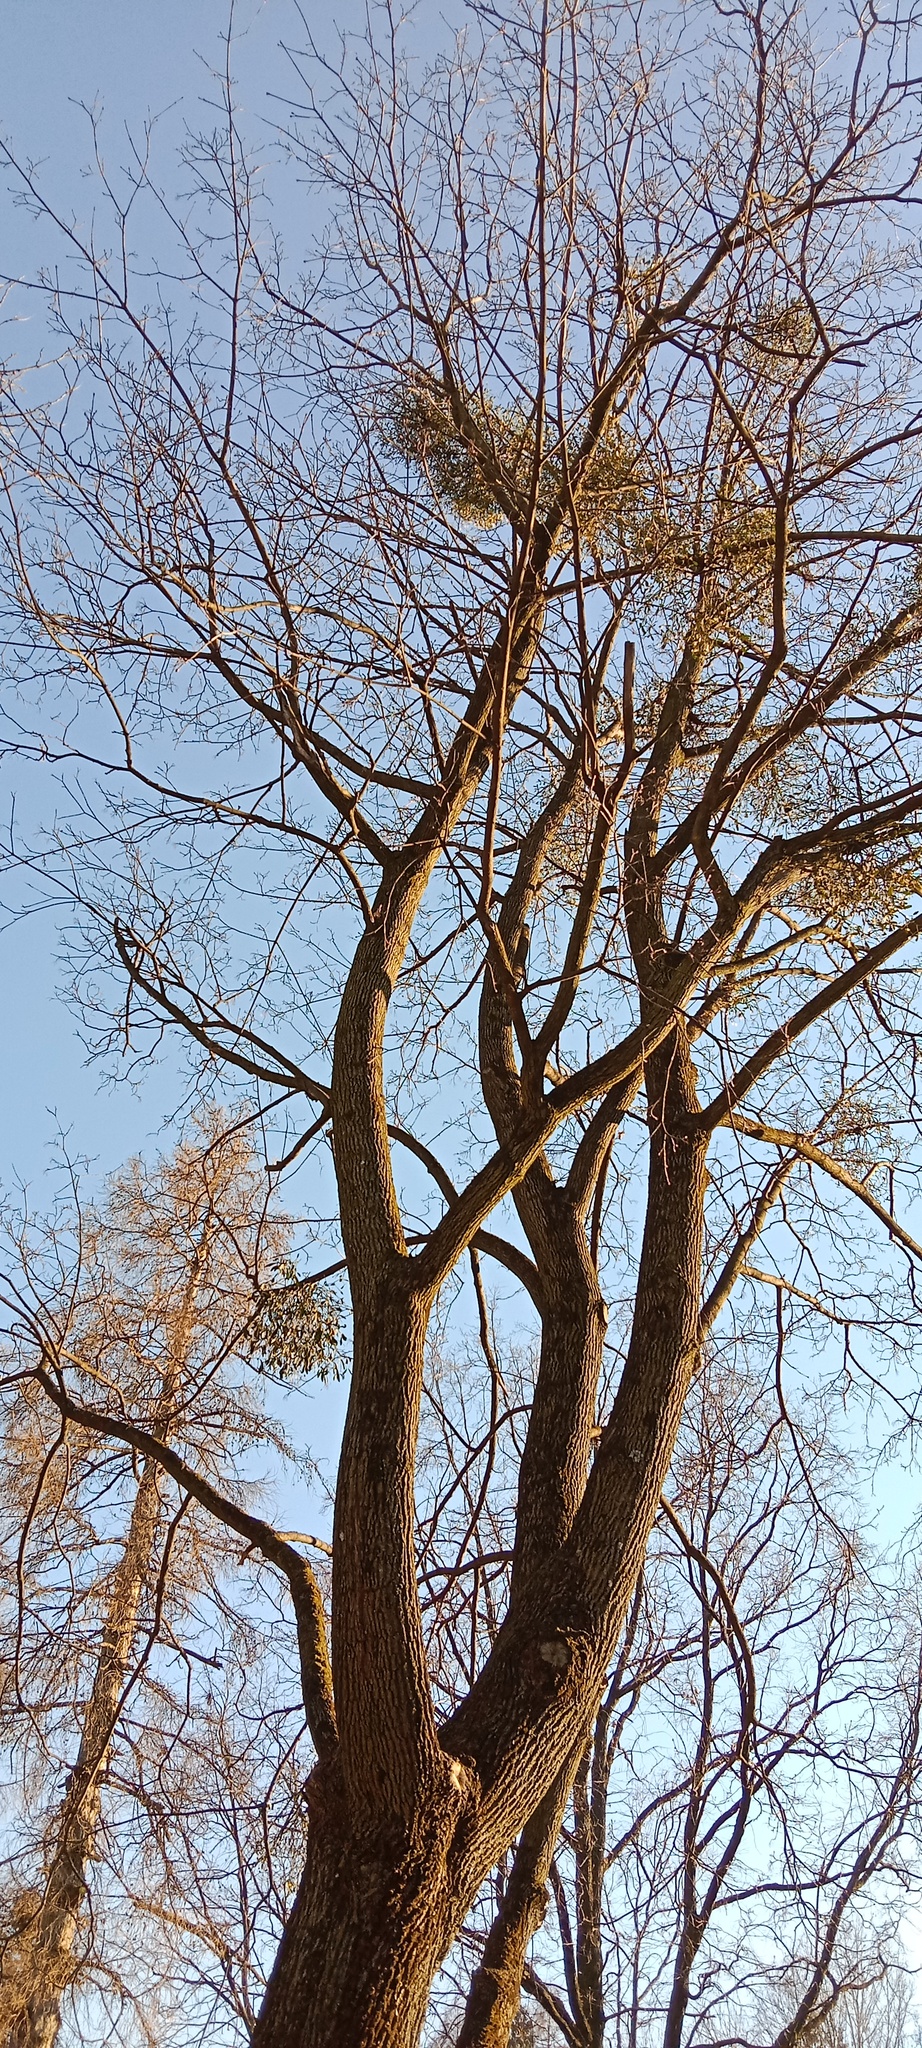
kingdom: Plantae
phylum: Tracheophyta
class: Magnoliopsida
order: Santalales
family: Viscaceae
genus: Viscum
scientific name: Viscum album
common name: Mistletoe
